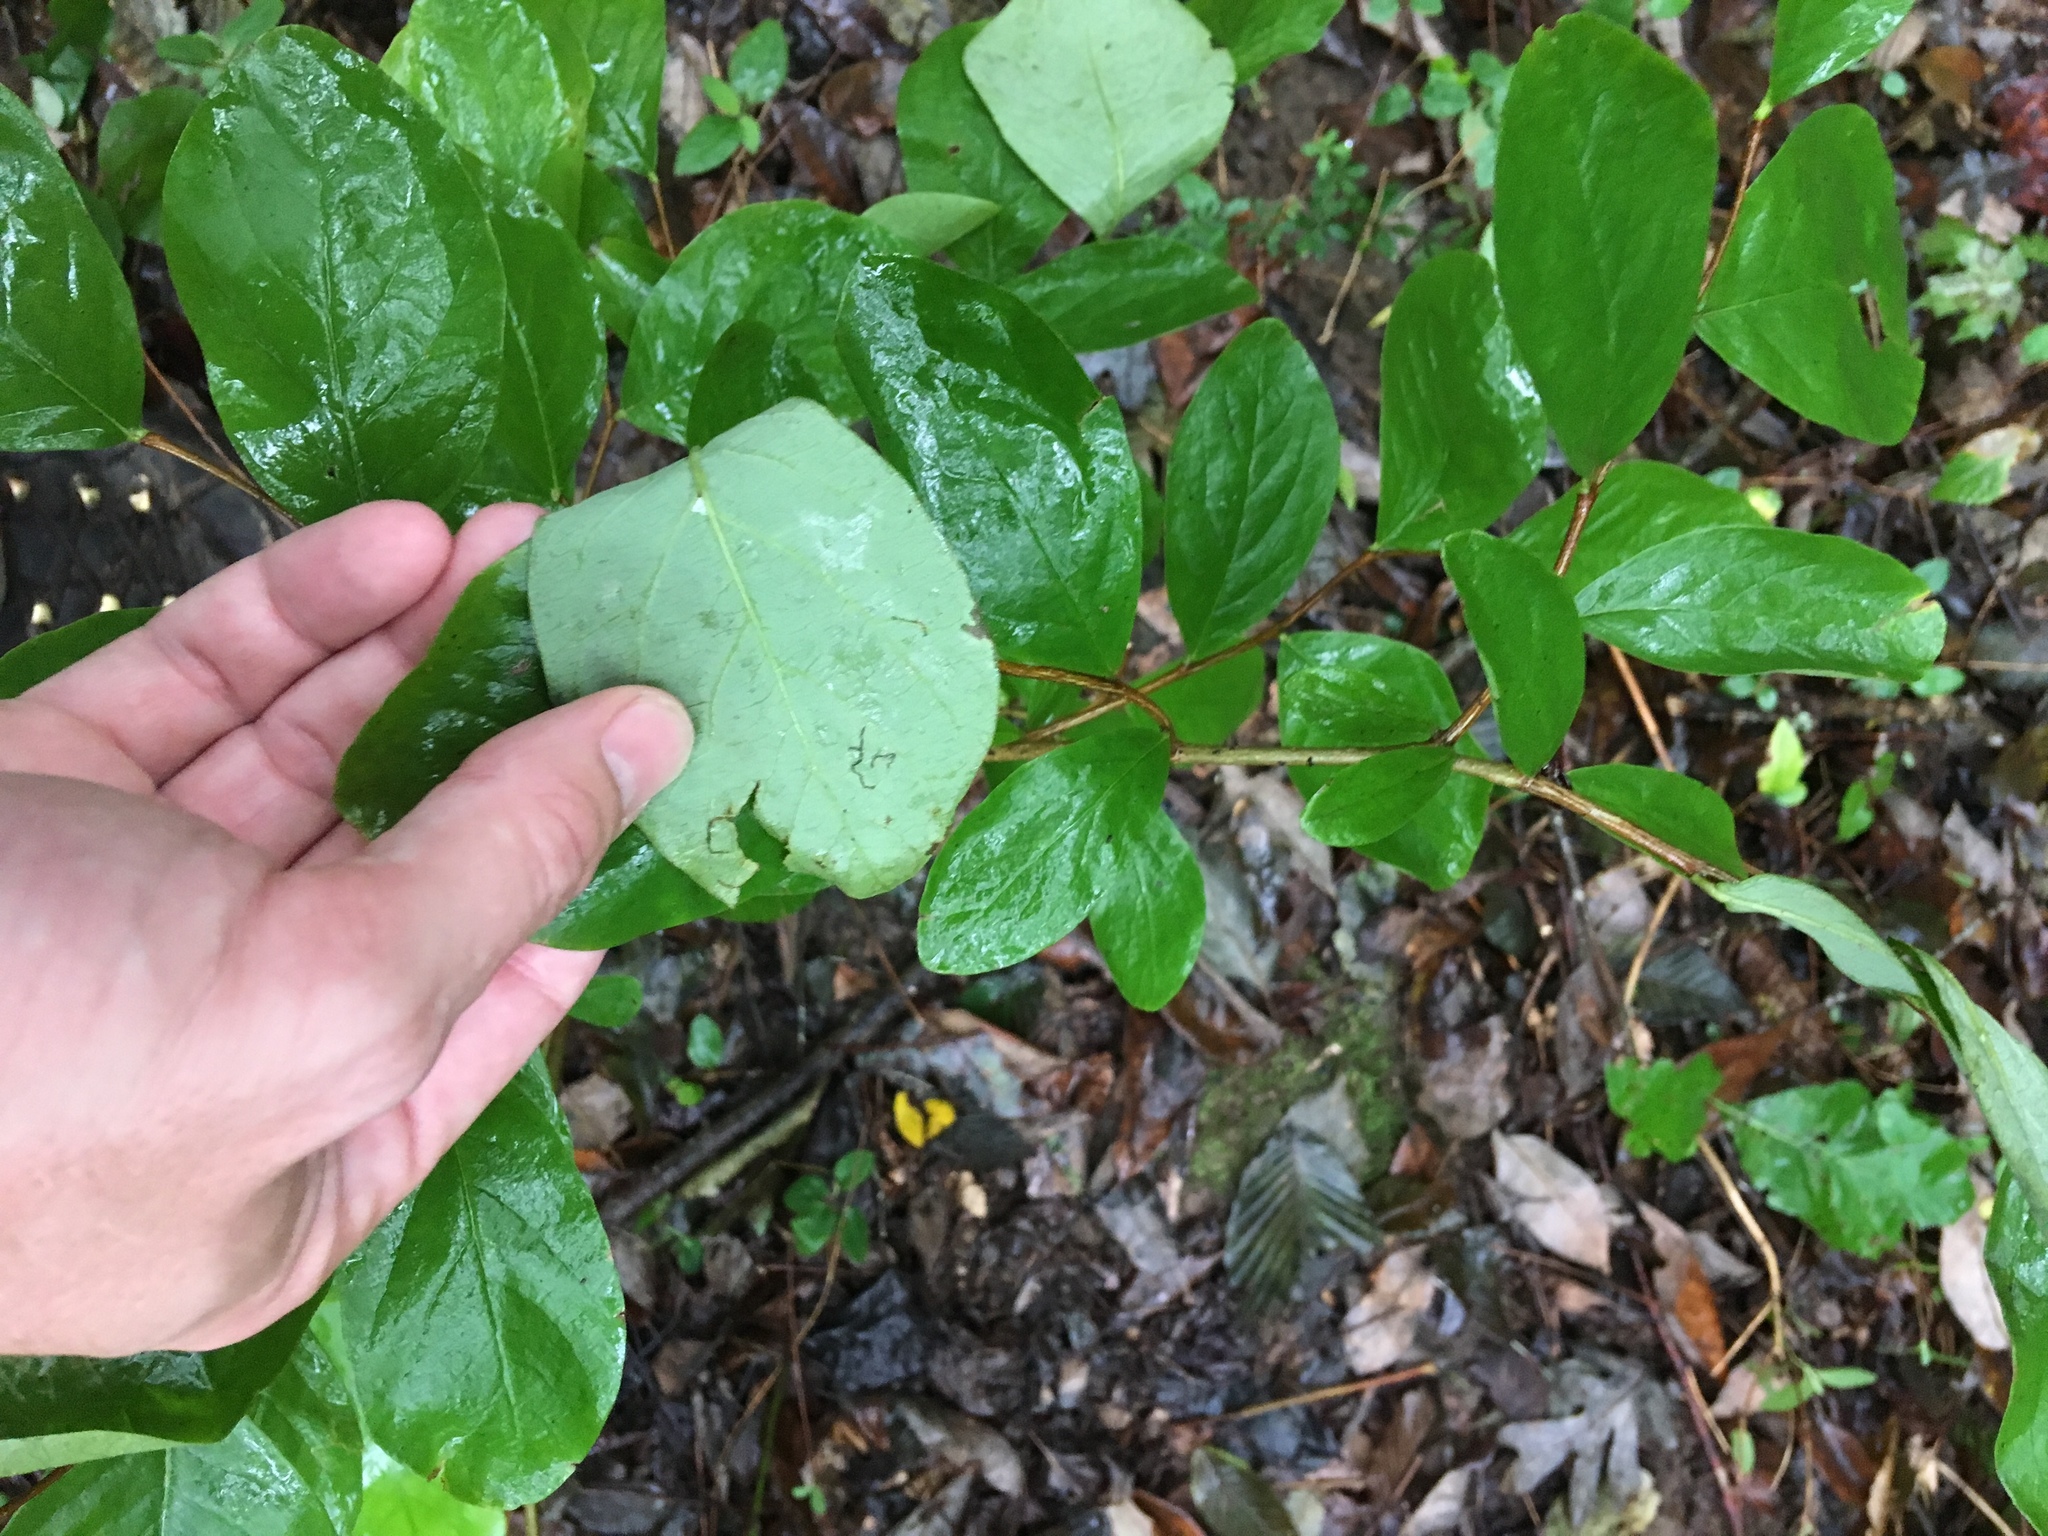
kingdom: Plantae
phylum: Tracheophyta
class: Magnoliopsida
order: Malvales
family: Thymelaeaceae
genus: Dirca
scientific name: Dirca palustris
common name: Leatherwood
